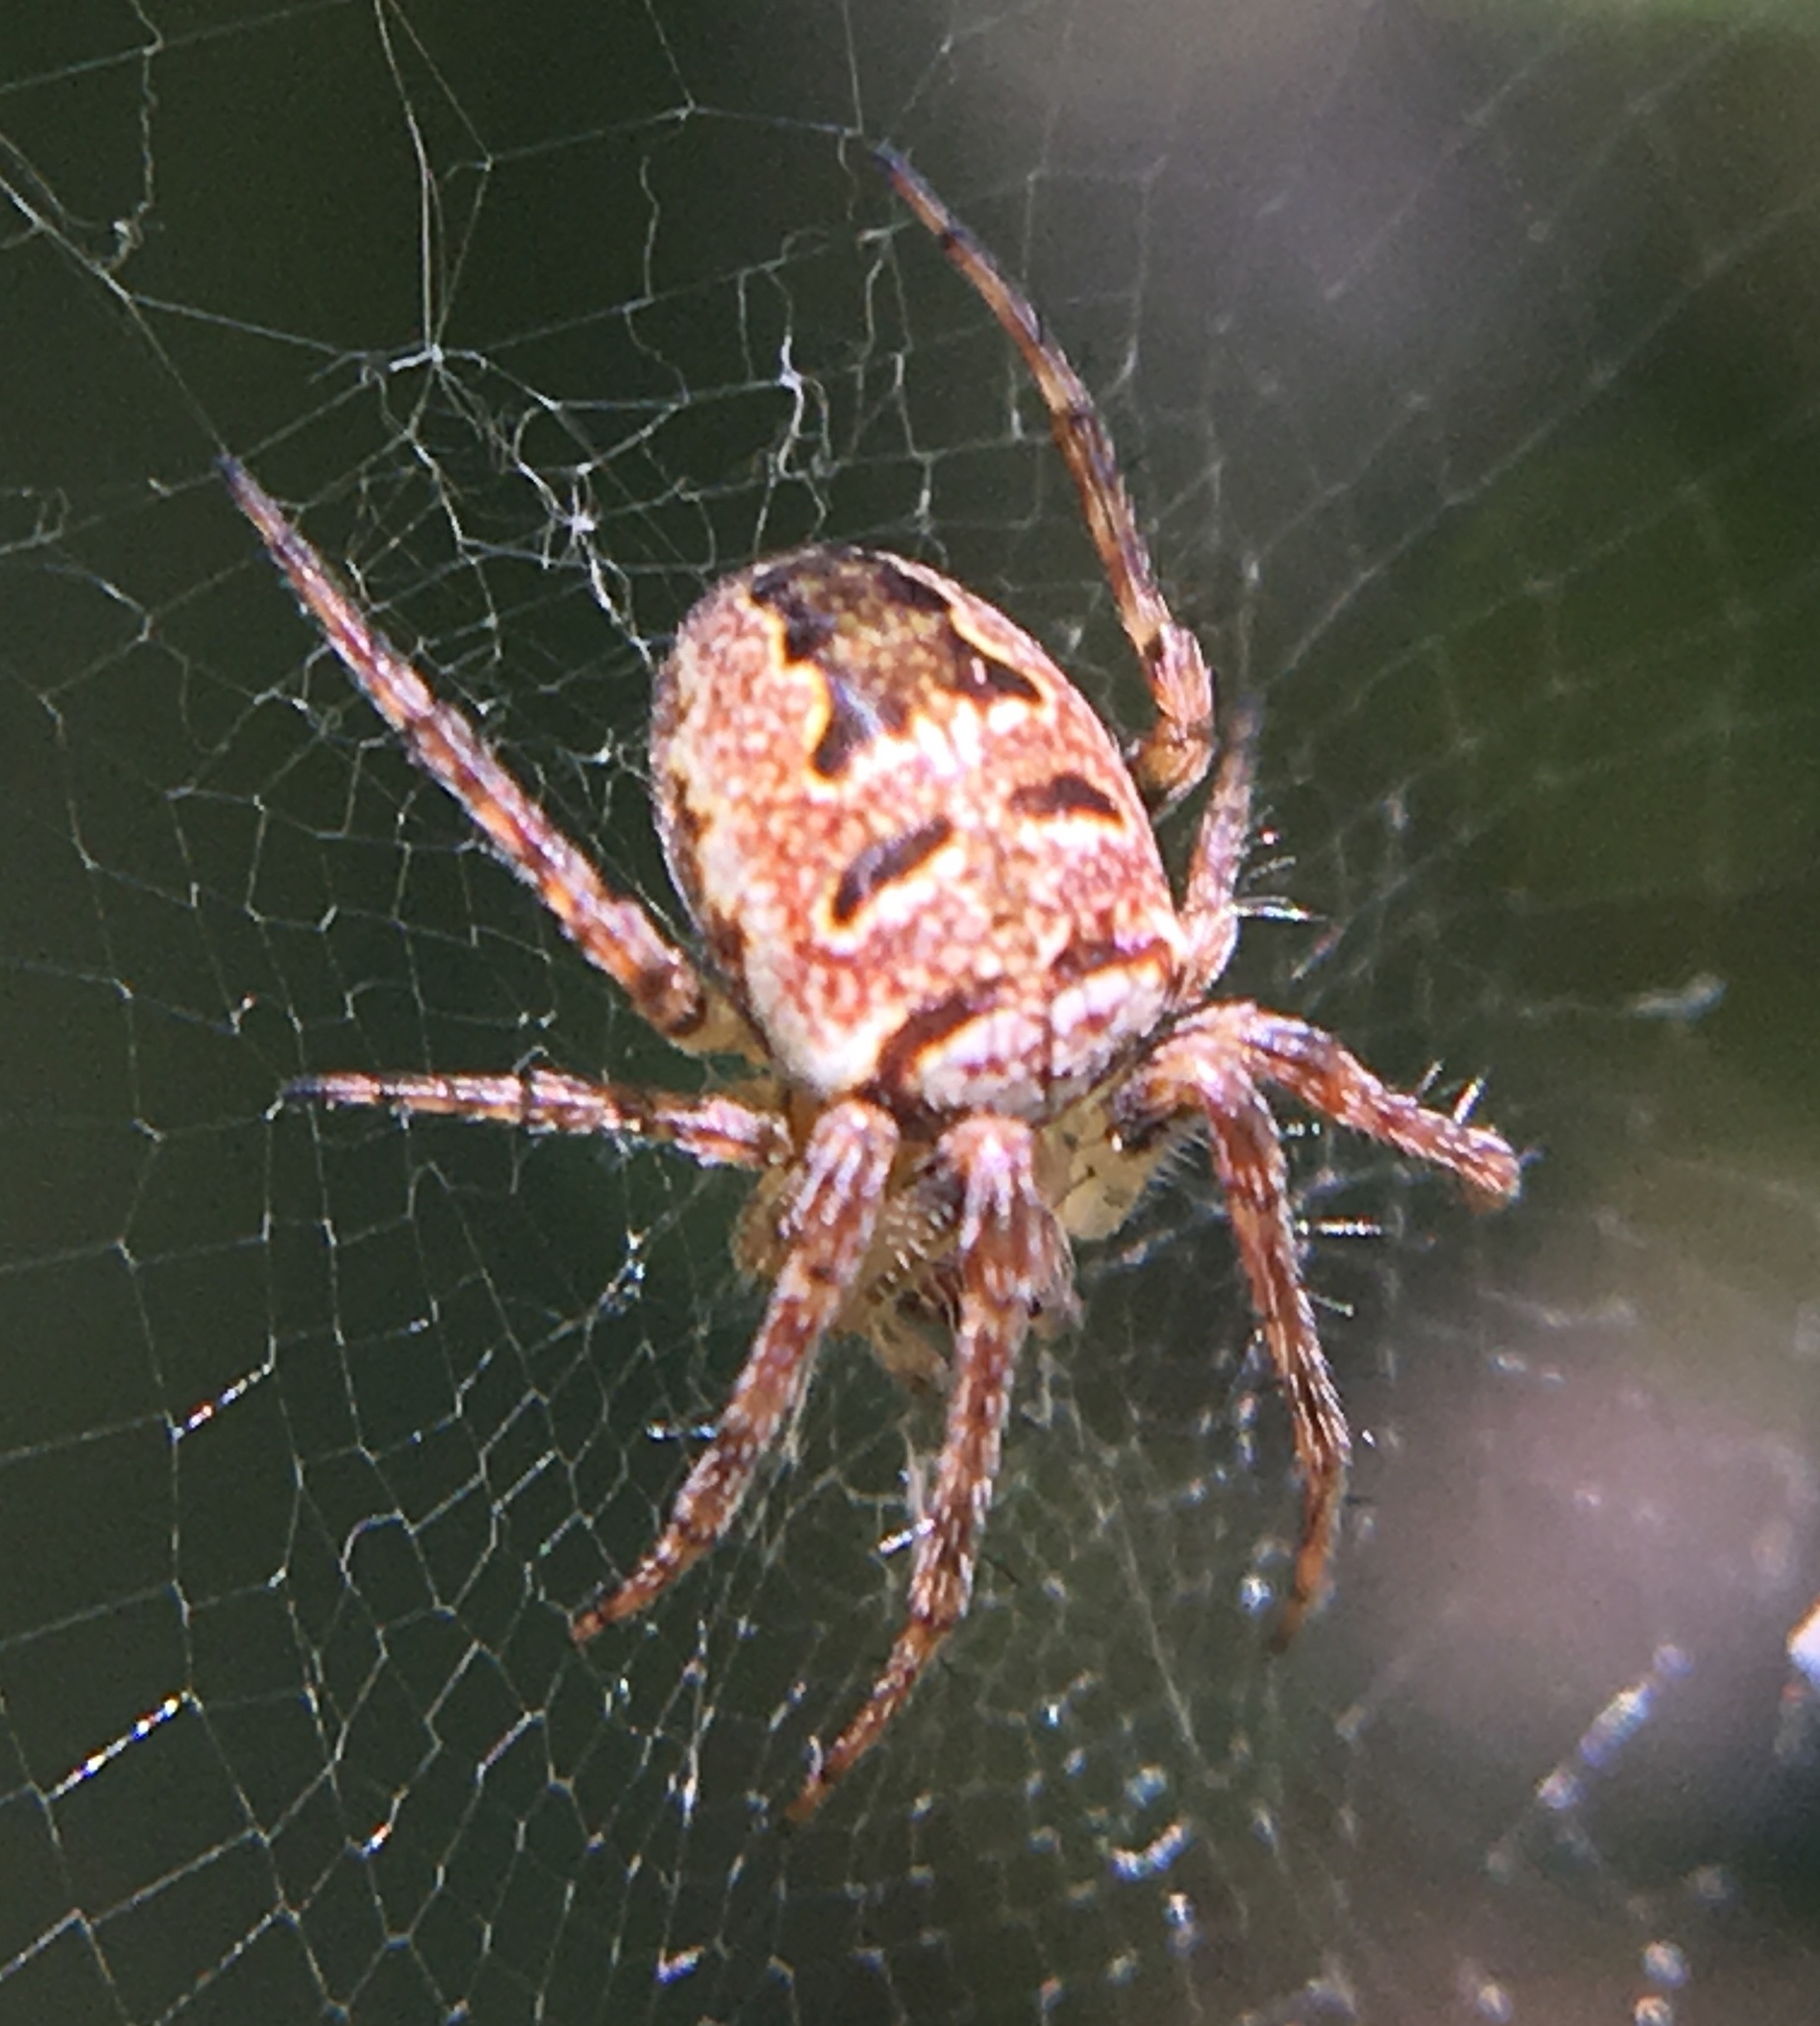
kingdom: Animalia
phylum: Arthropoda
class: Arachnida
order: Araneae
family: Araneidae
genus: Zilla
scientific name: Zilla diodia
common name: Zilla diodia
